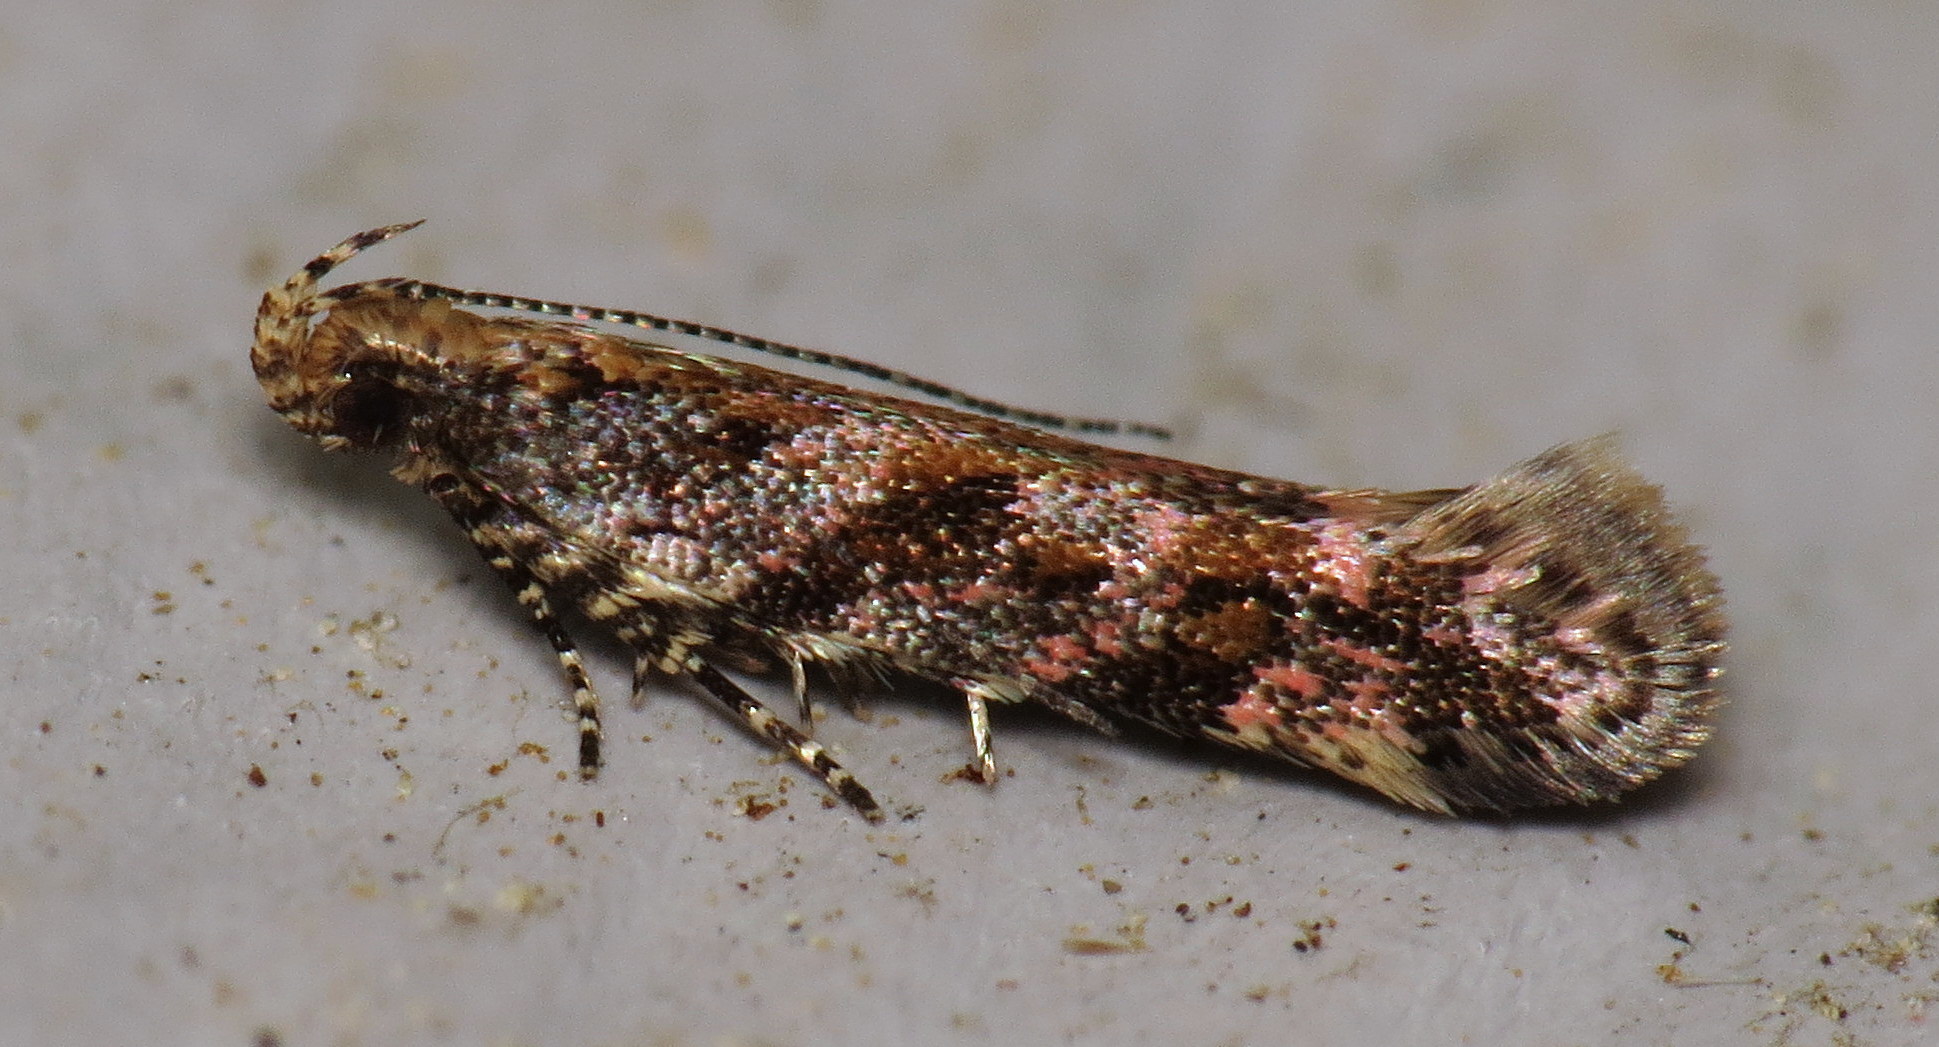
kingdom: Animalia
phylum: Arthropoda
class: Insecta
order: Lepidoptera
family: Gelechiidae
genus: Aristotelia
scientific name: Aristotelia rubidella
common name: Ruby aristotelia moth
